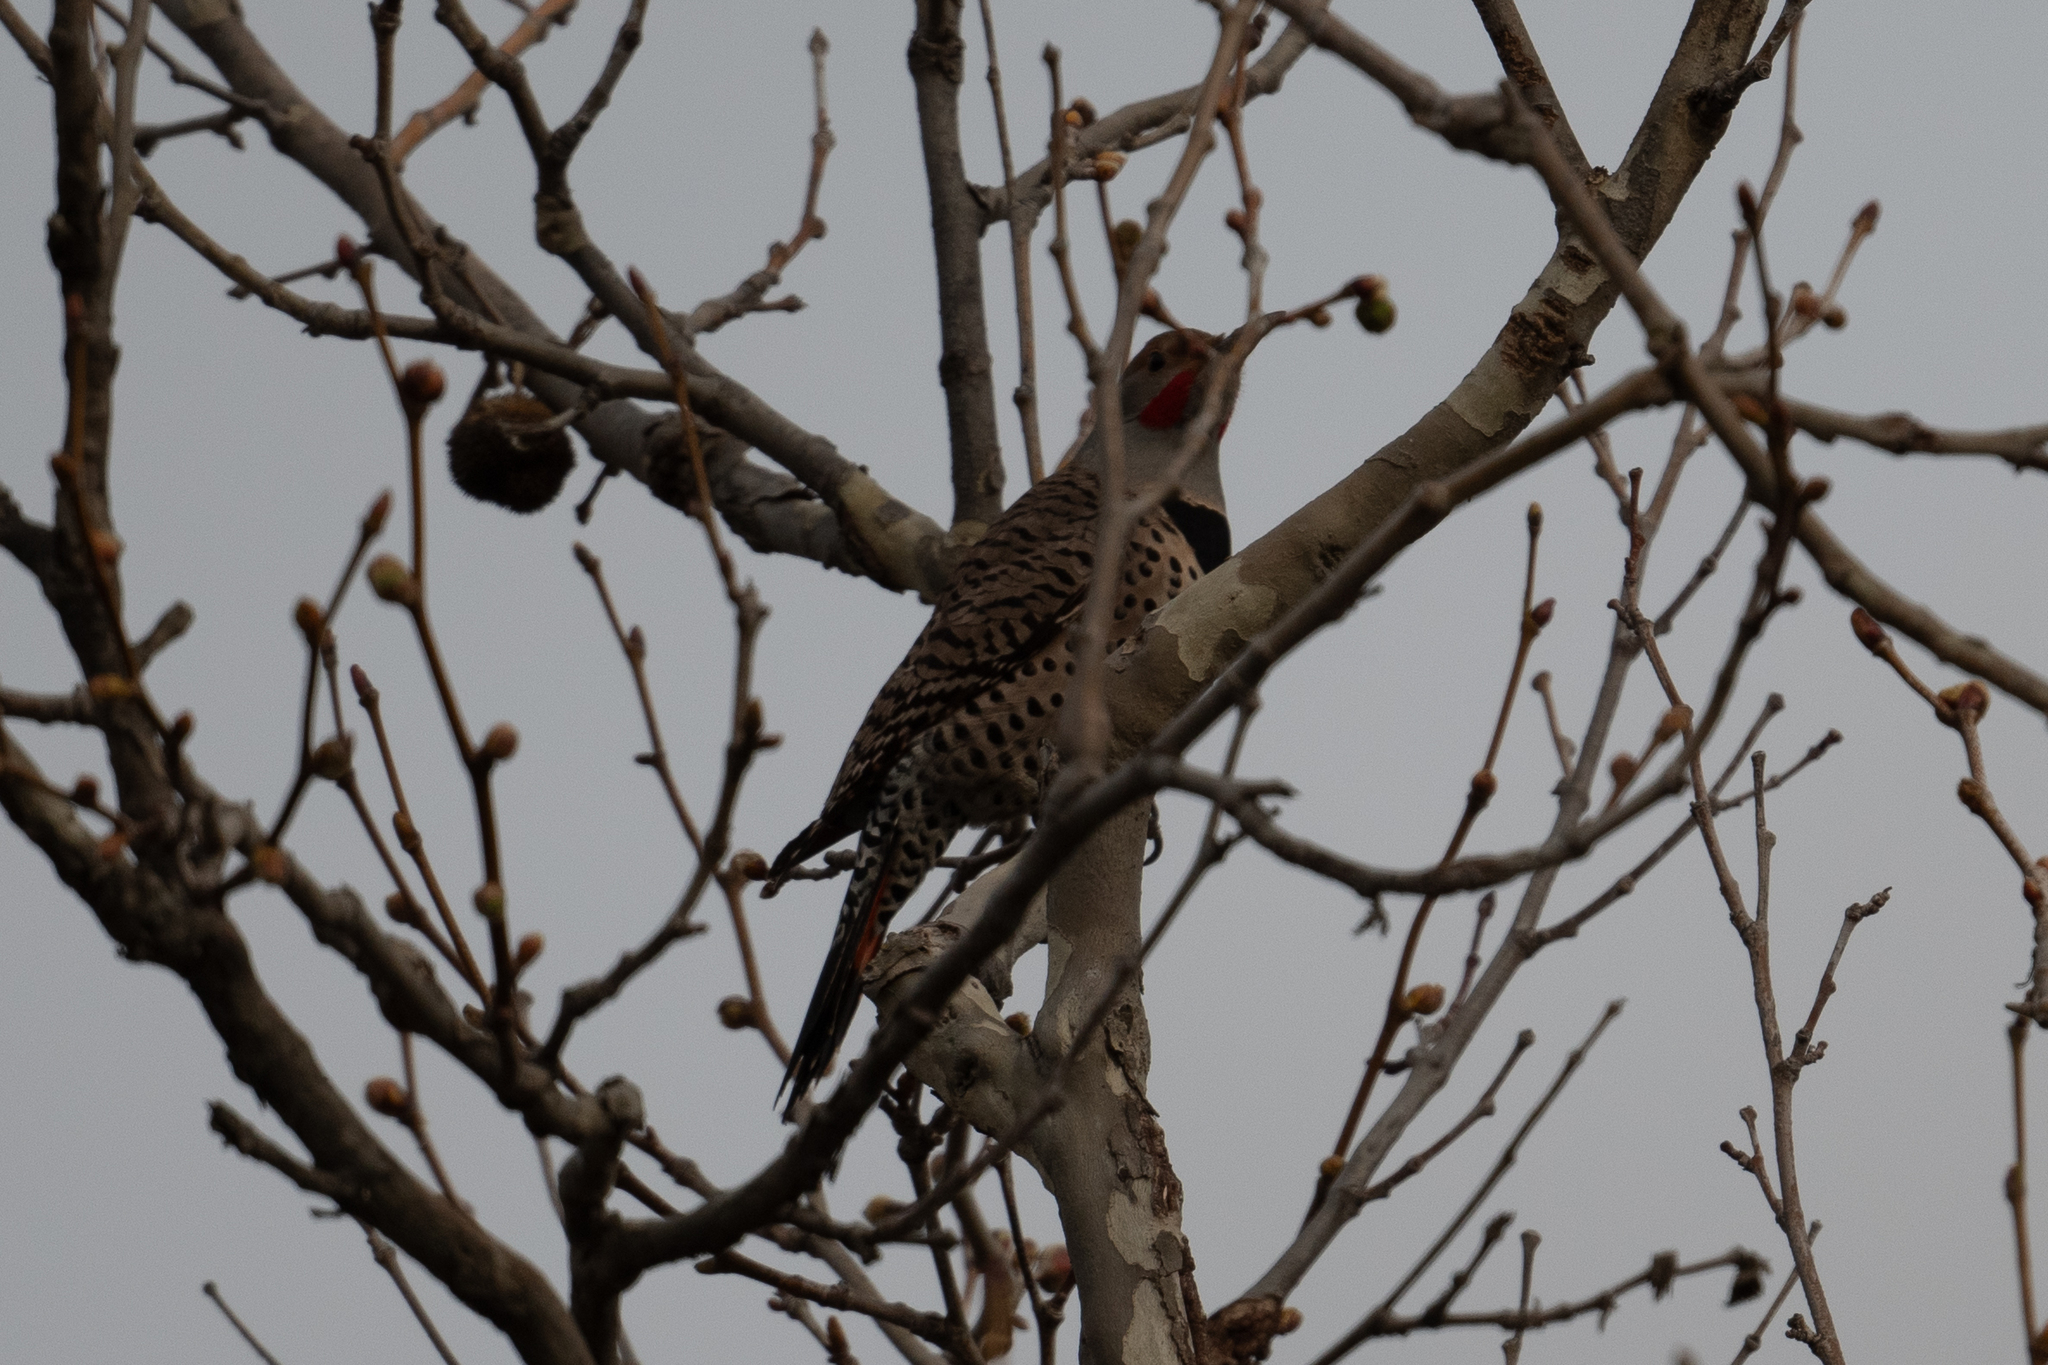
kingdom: Animalia
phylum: Chordata
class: Aves
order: Piciformes
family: Picidae
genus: Colaptes
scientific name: Colaptes auratus
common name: Northern flicker
